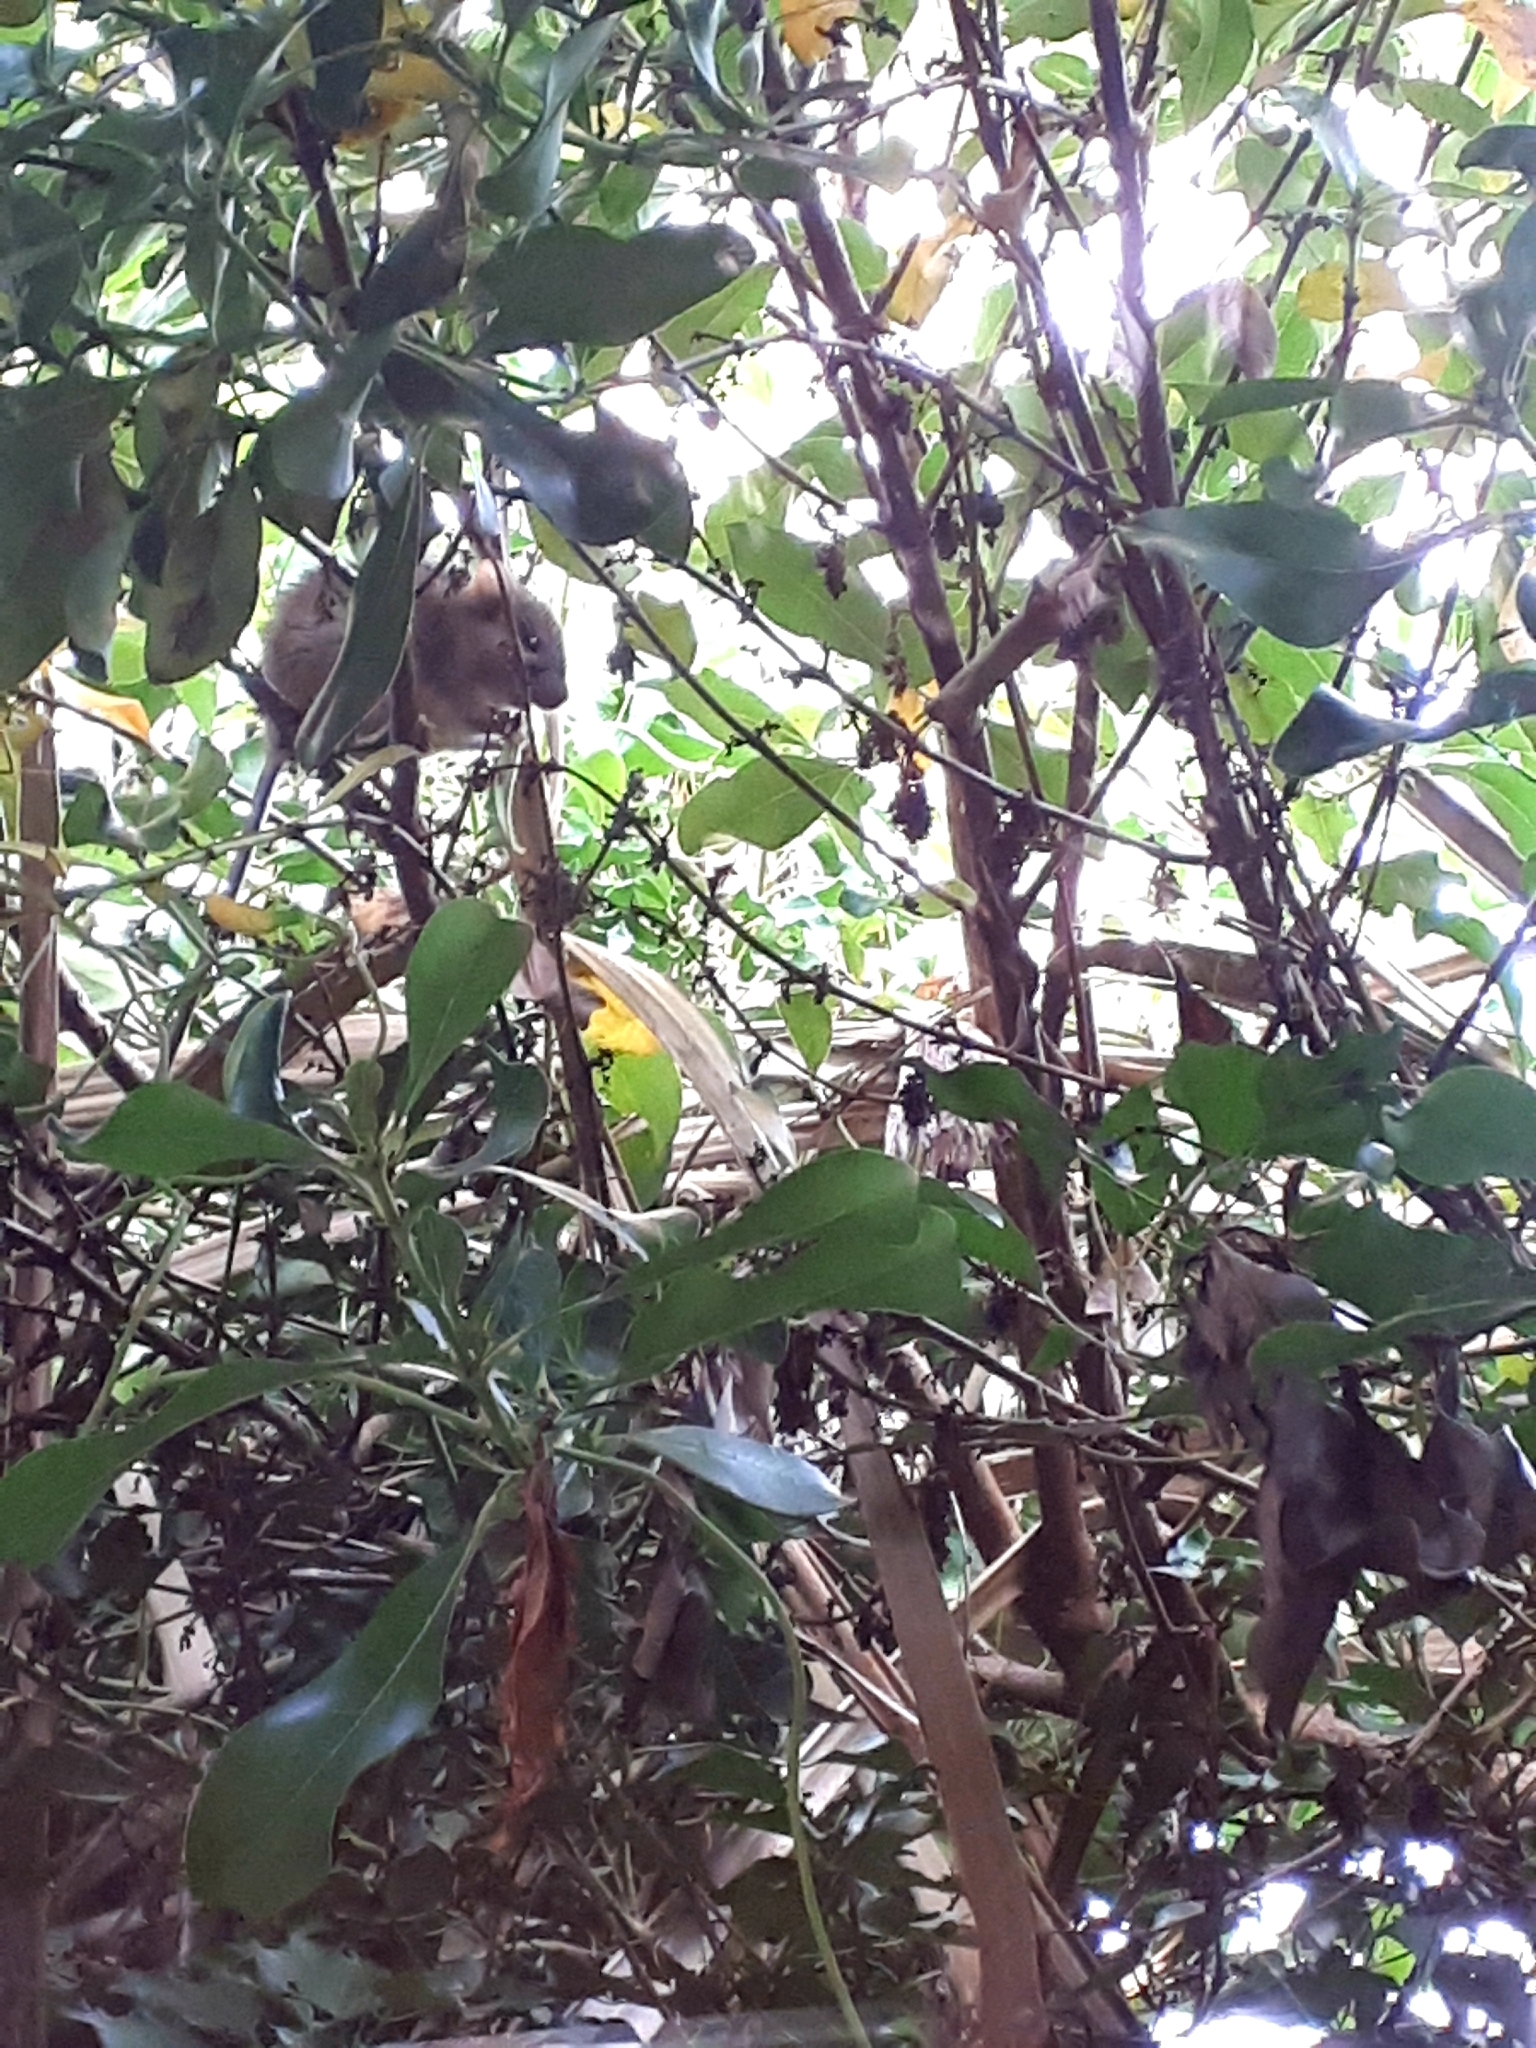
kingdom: Plantae
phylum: Tracheophyta
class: Magnoliopsida
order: Gentianales
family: Rubiaceae
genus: Coprosma
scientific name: Coprosma robusta
